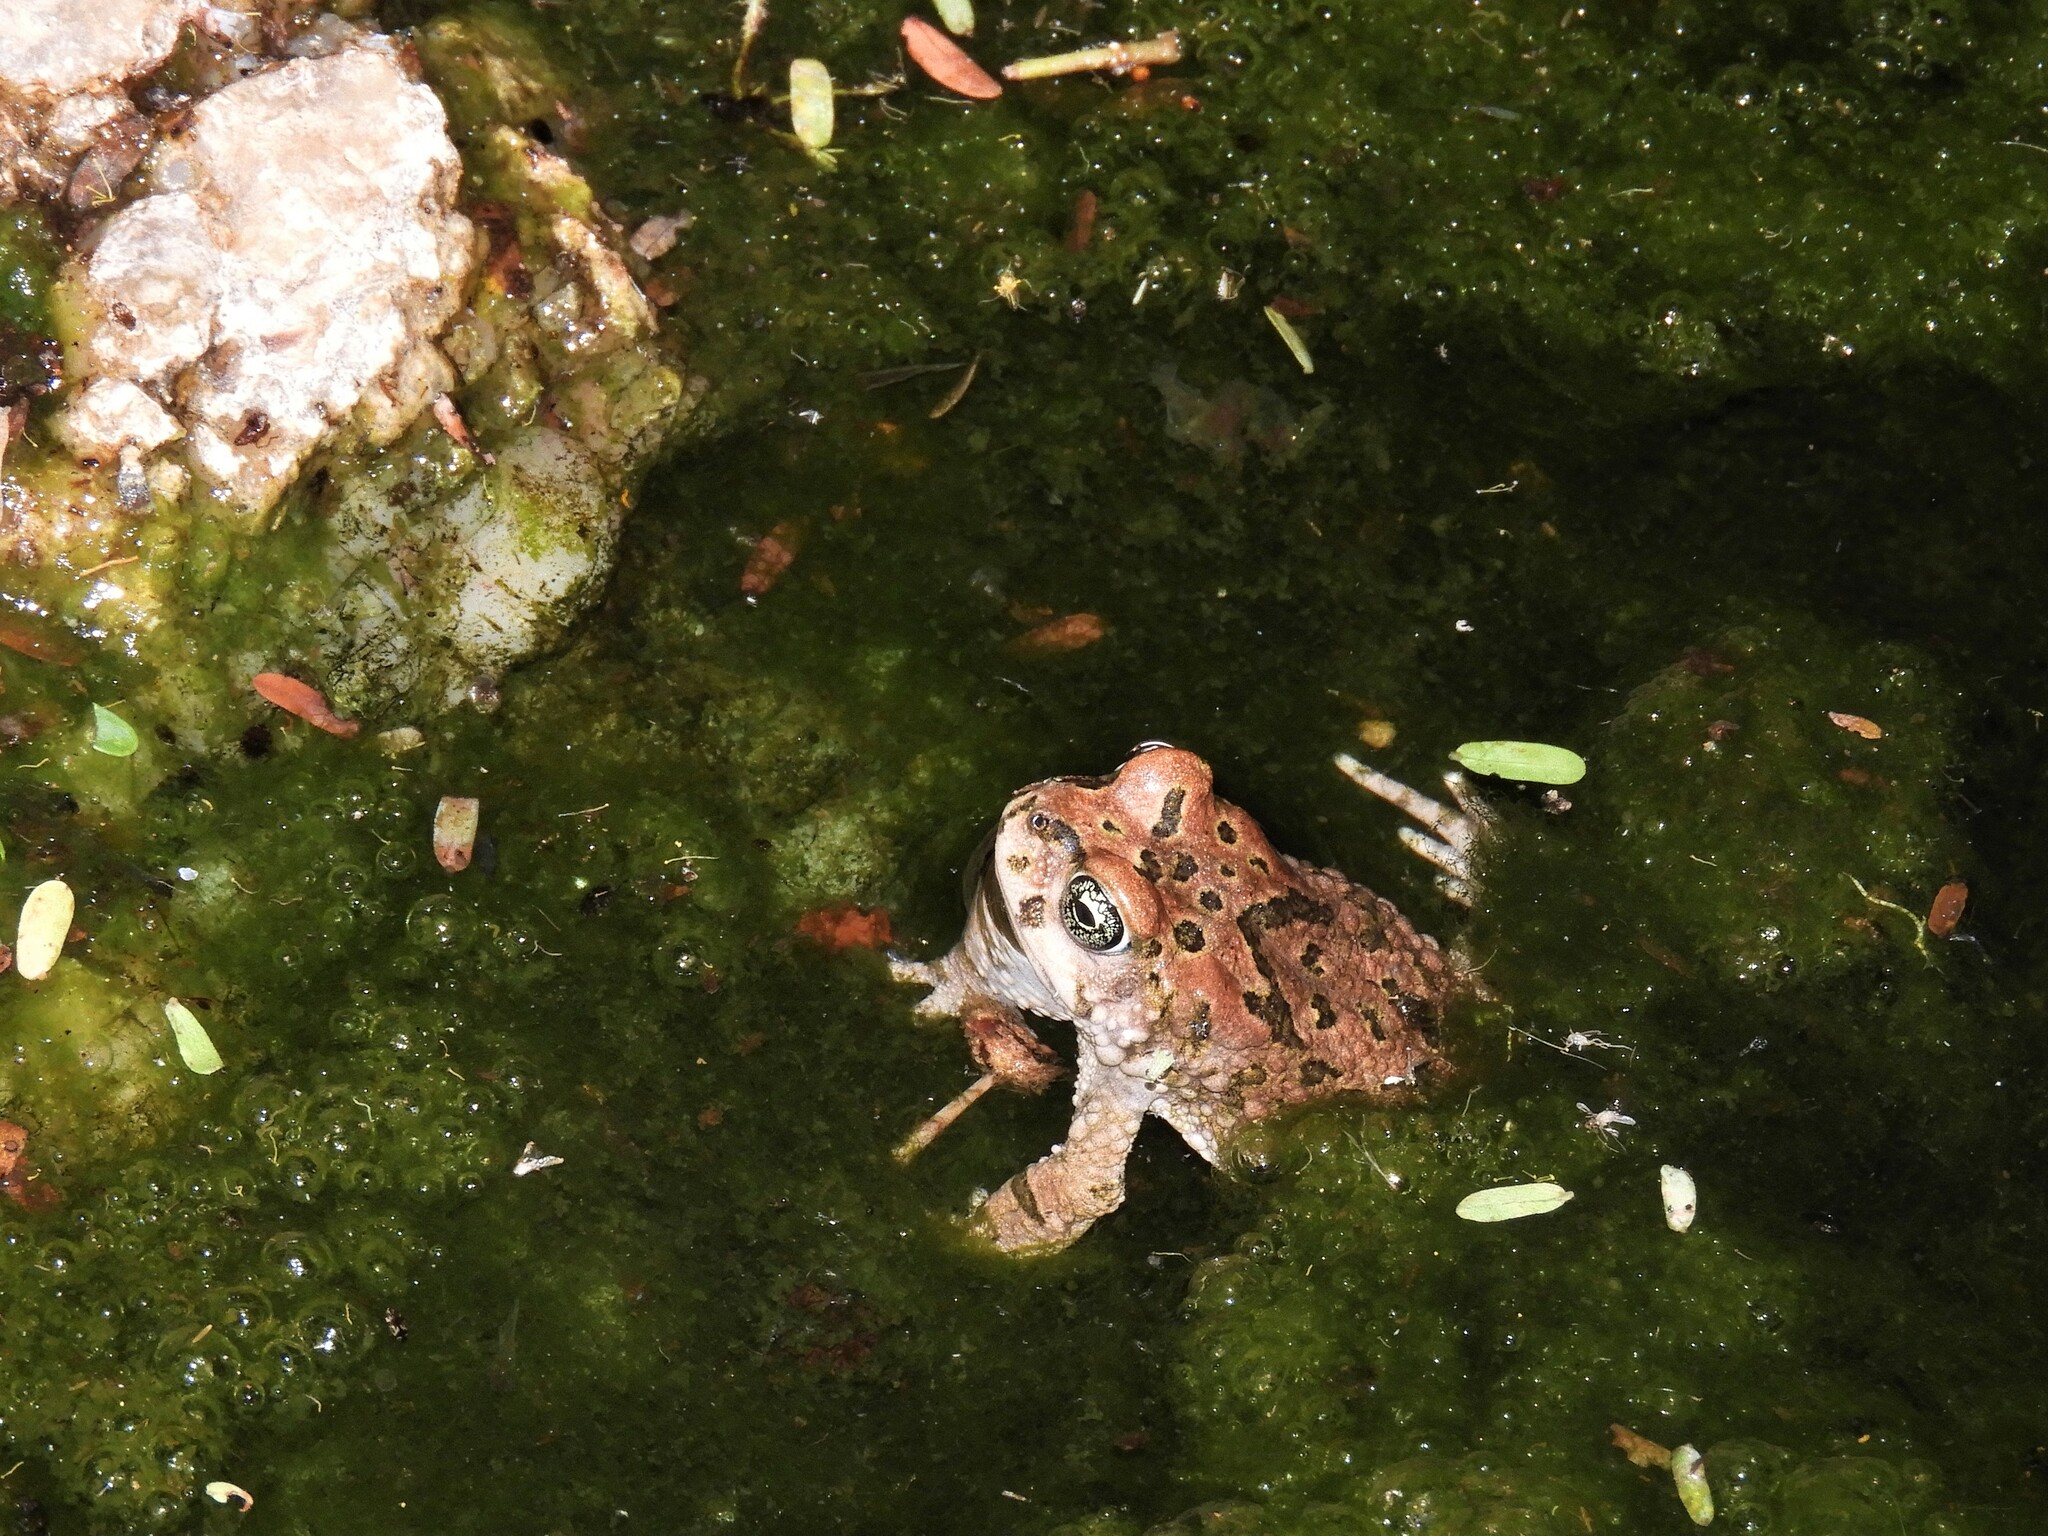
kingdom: Animalia
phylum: Chordata
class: Amphibia
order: Anura
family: Bufonidae
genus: Vandijkophrynus
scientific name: Vandijkophrynus robinsoni
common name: Paradise toad
